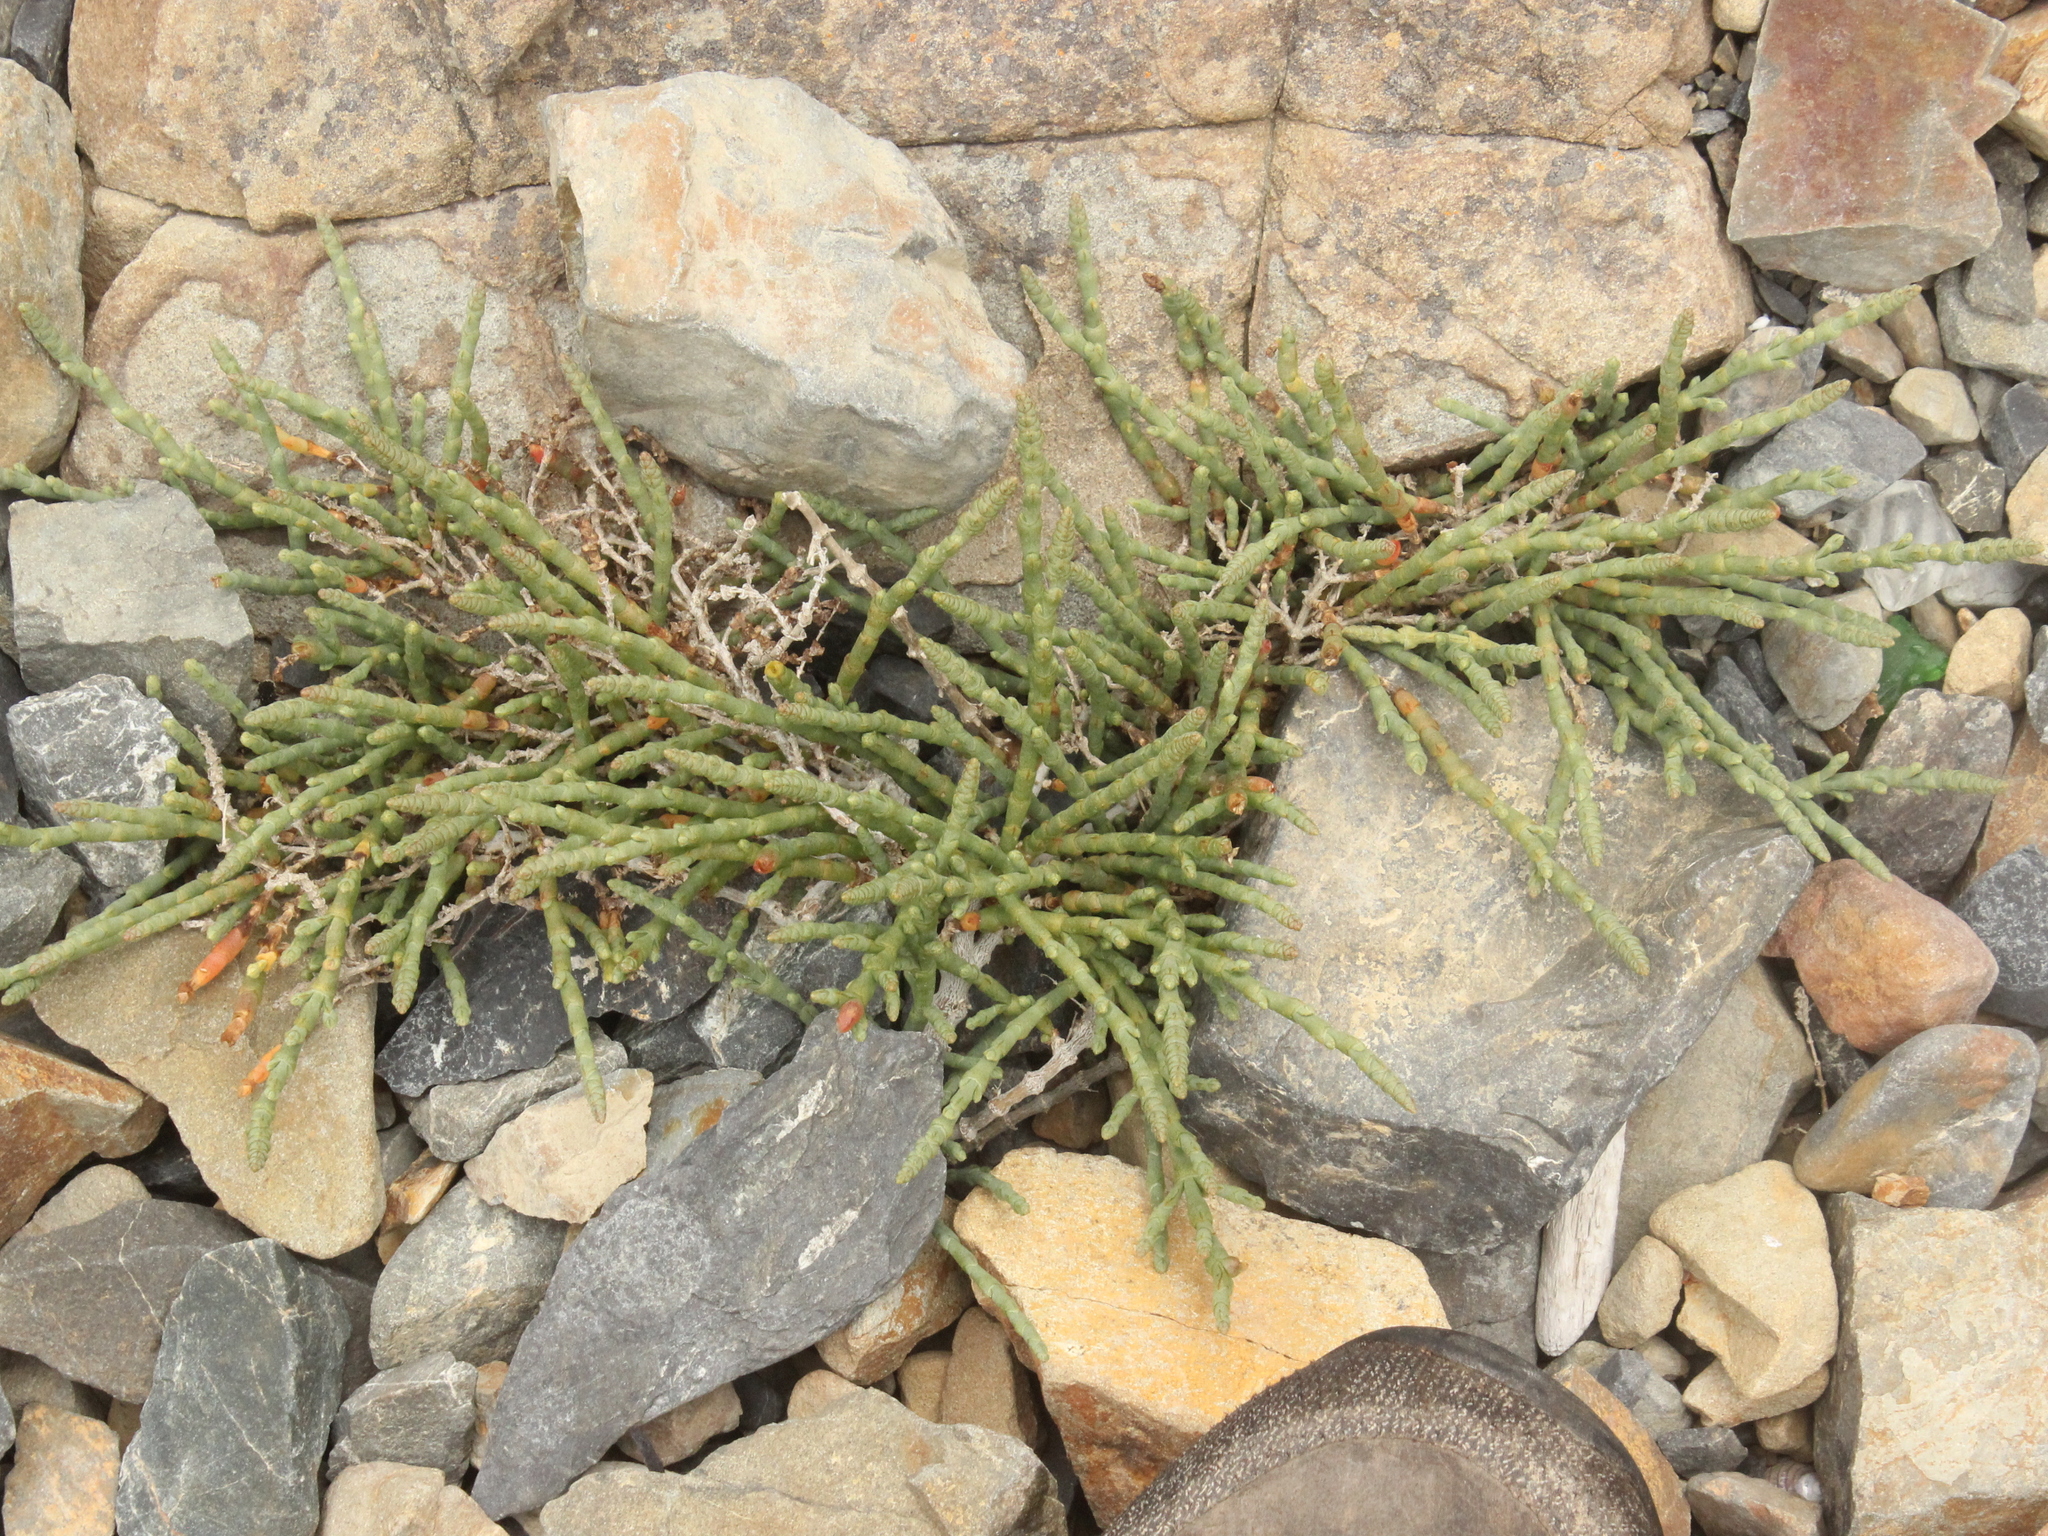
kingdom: Plantae
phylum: Tracheophyta
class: Magnoliopsida
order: Caryophyllales
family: Amaranthaceae
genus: Salicornia
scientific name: Salicornia quinqueflora
